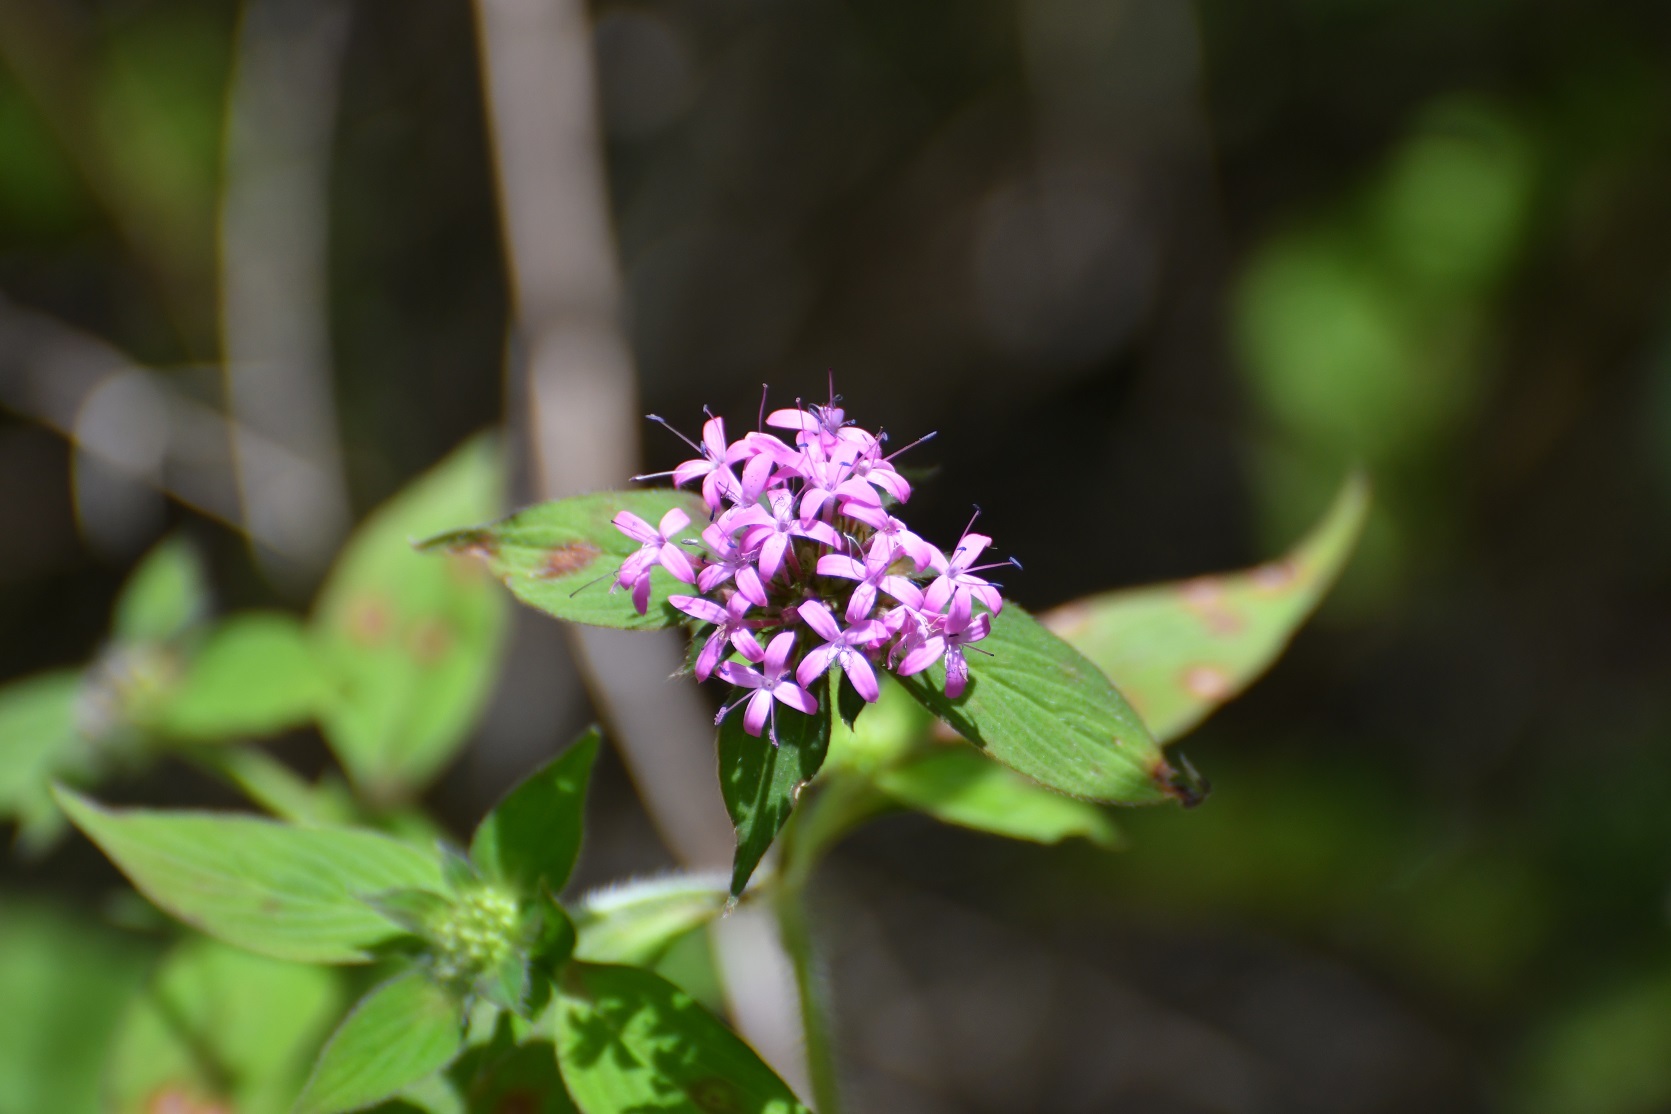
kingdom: Plantae
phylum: Tracheophyta
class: Magnoliopsida
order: Gentianales
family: Rubiaceae
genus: Crusea
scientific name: Crusea hispida
